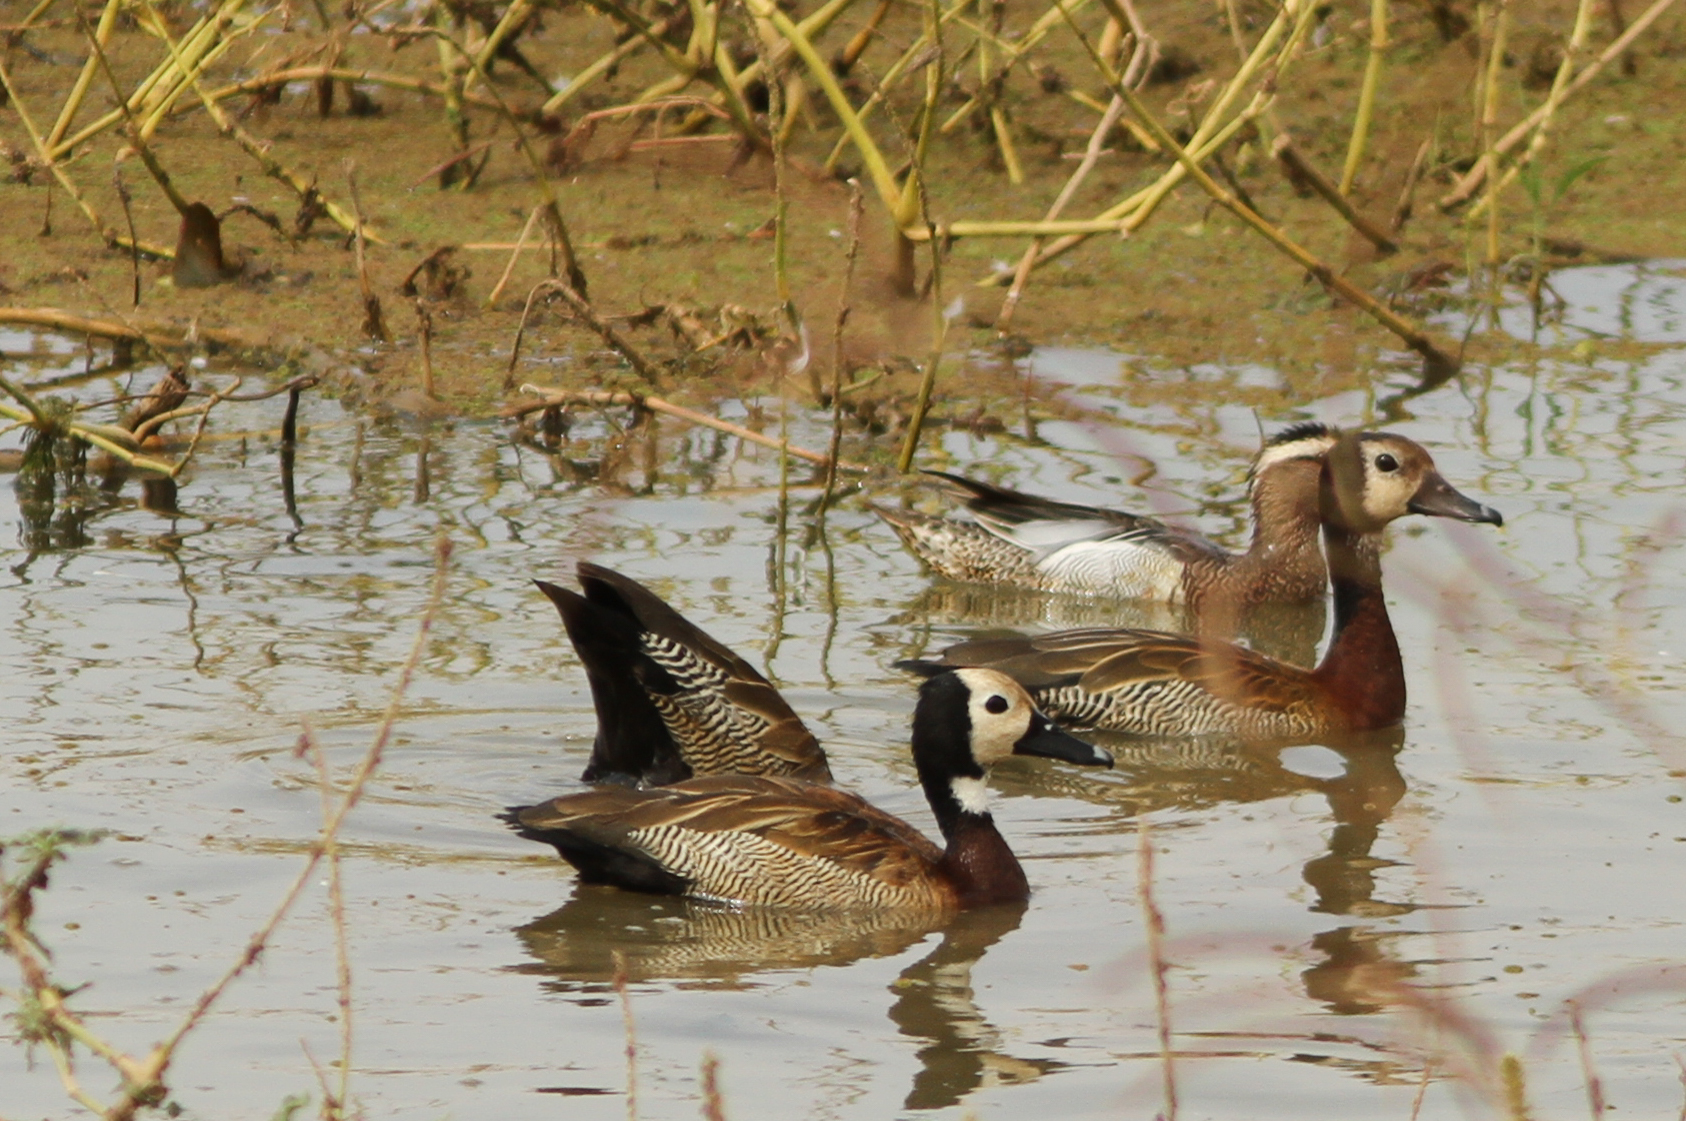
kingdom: Animalia
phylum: Chordata
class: Aves
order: Anseriformes
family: Anatidae
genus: Dendrocygna
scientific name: Dendrocygna viduata
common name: White-faced whistling duck
